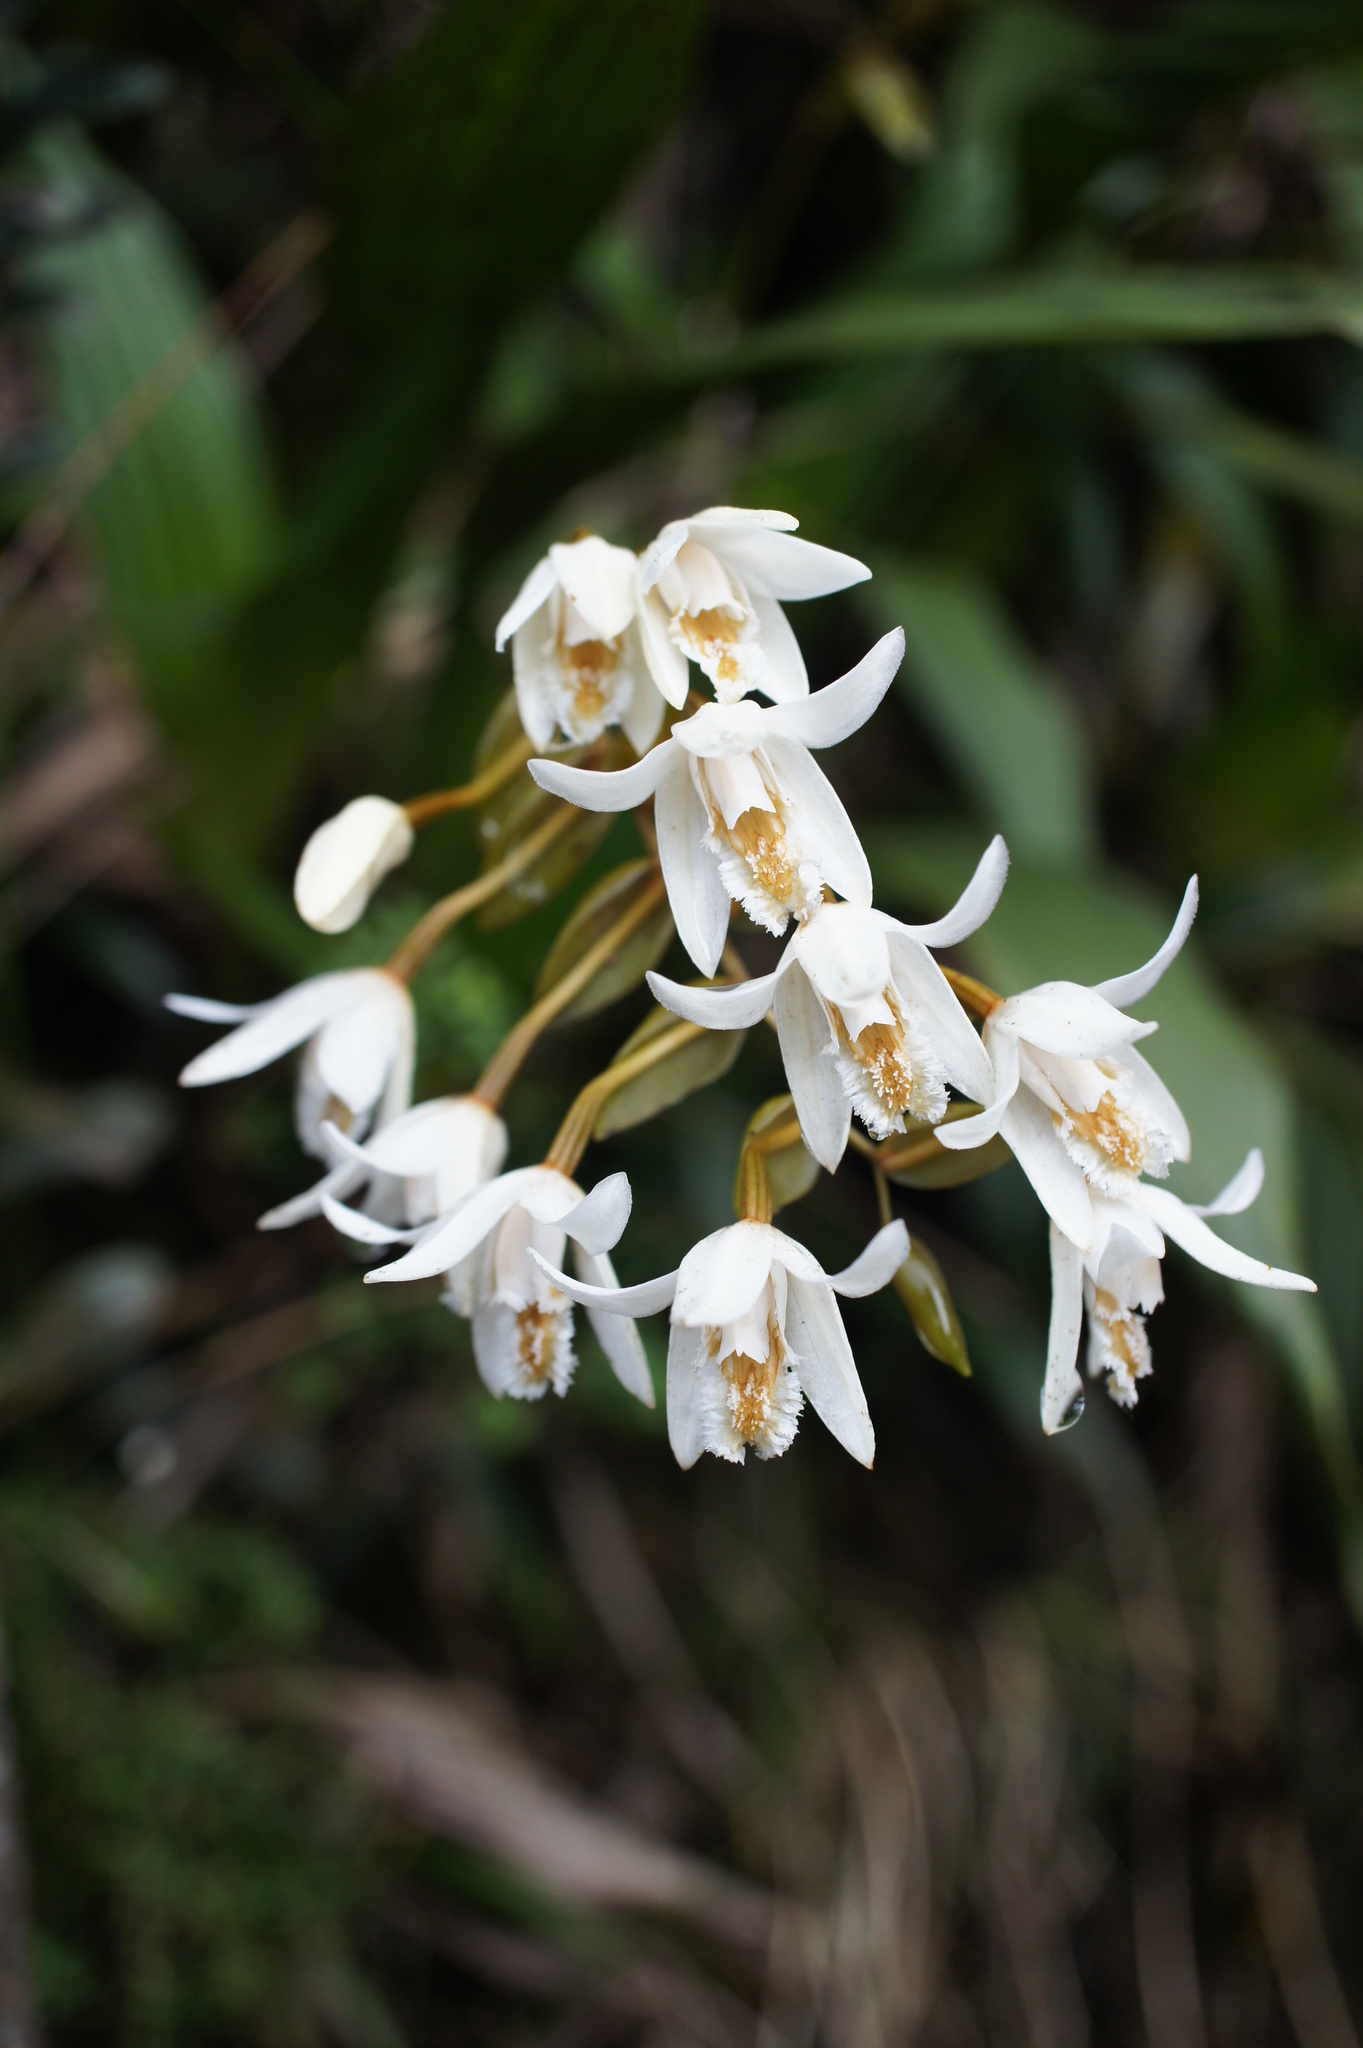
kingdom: Plantae
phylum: Tracheophyta
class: Liliopsida
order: Asparagales
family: Orchidaceae
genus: Coelogyne
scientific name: Coelogyne papillosa
